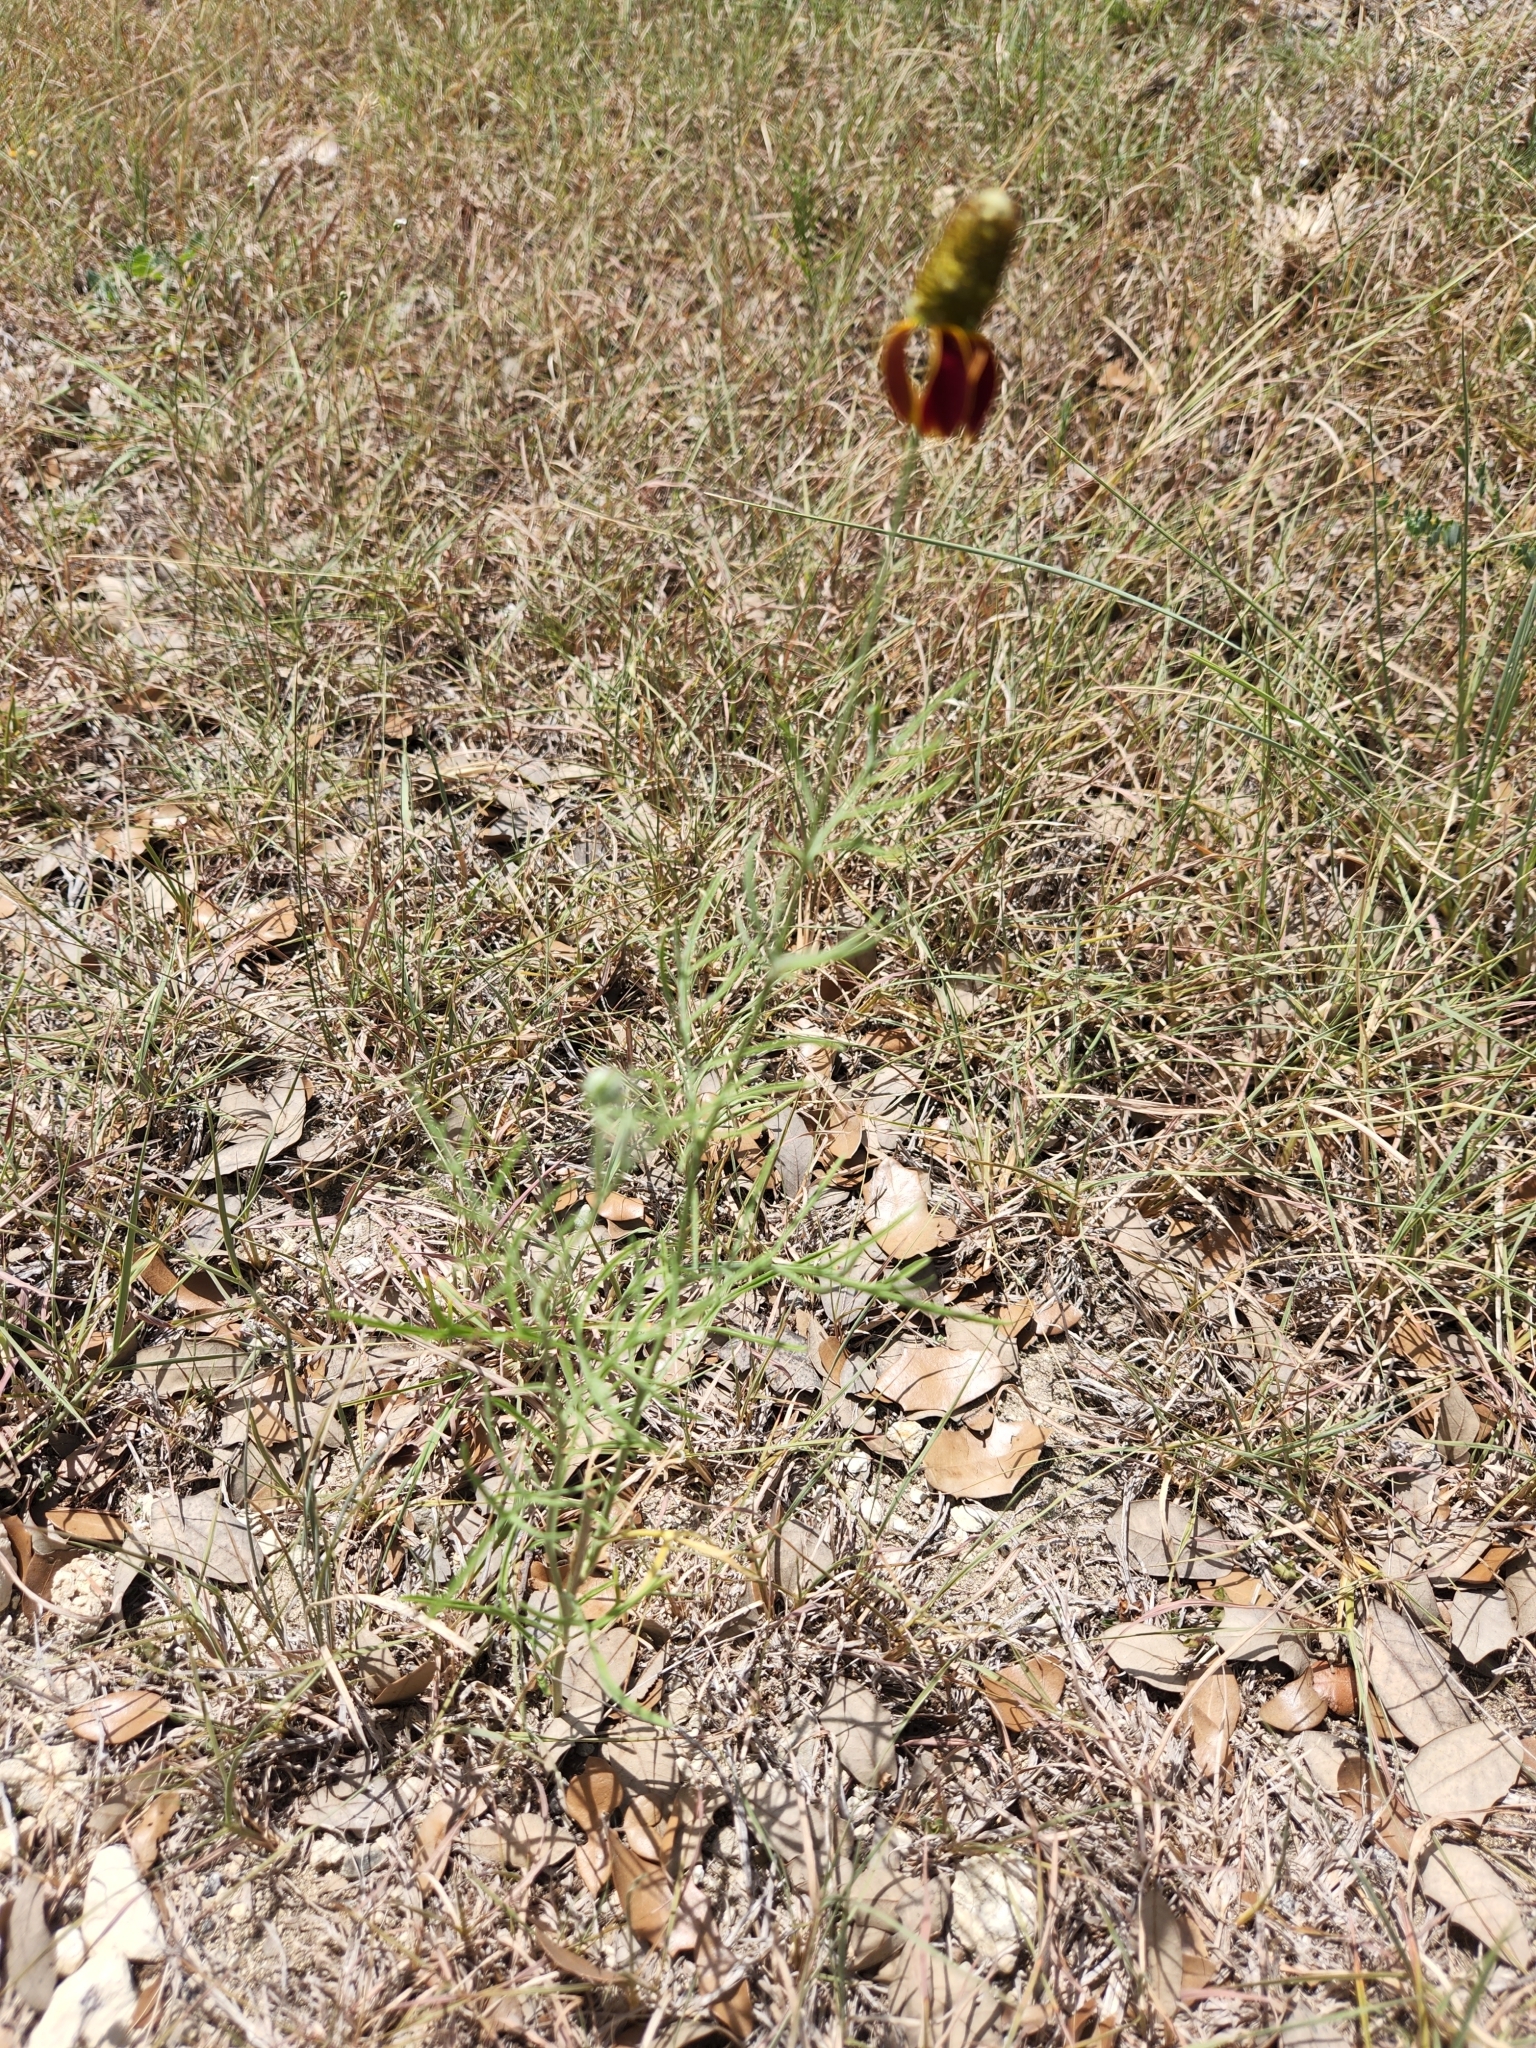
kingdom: Plantae
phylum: Tracheophyta
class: Magnoliopsida
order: Asterales
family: Asteraceae
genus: Ratibida
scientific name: Ratibida columnifera
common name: Prairie coneflower
